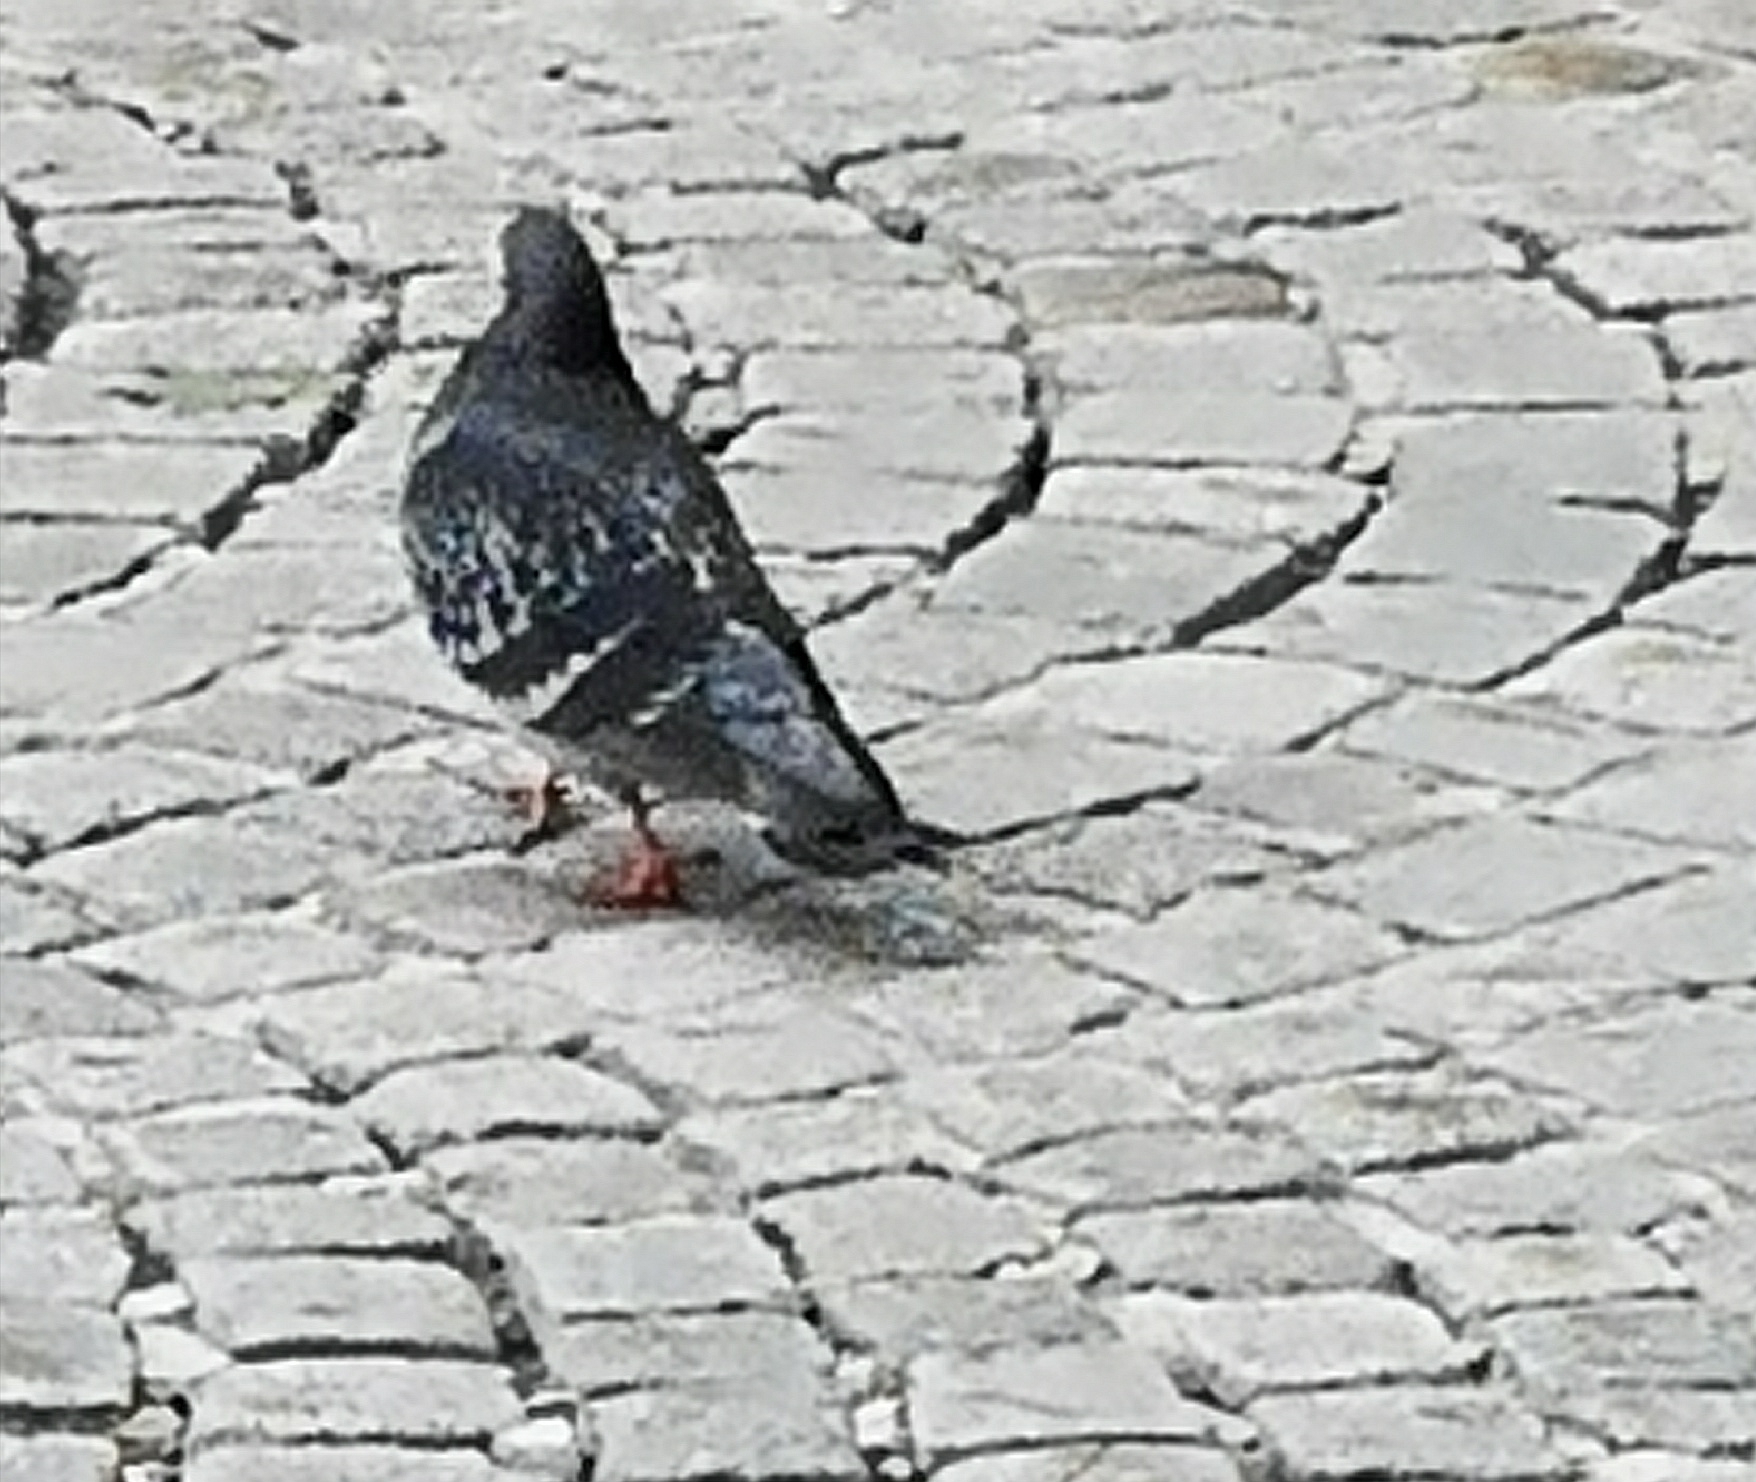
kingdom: Animalia
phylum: Chordata
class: Aves
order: Columbiformes
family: Columbidae
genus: Columba
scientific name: Columba livia
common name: Rock pigeon
